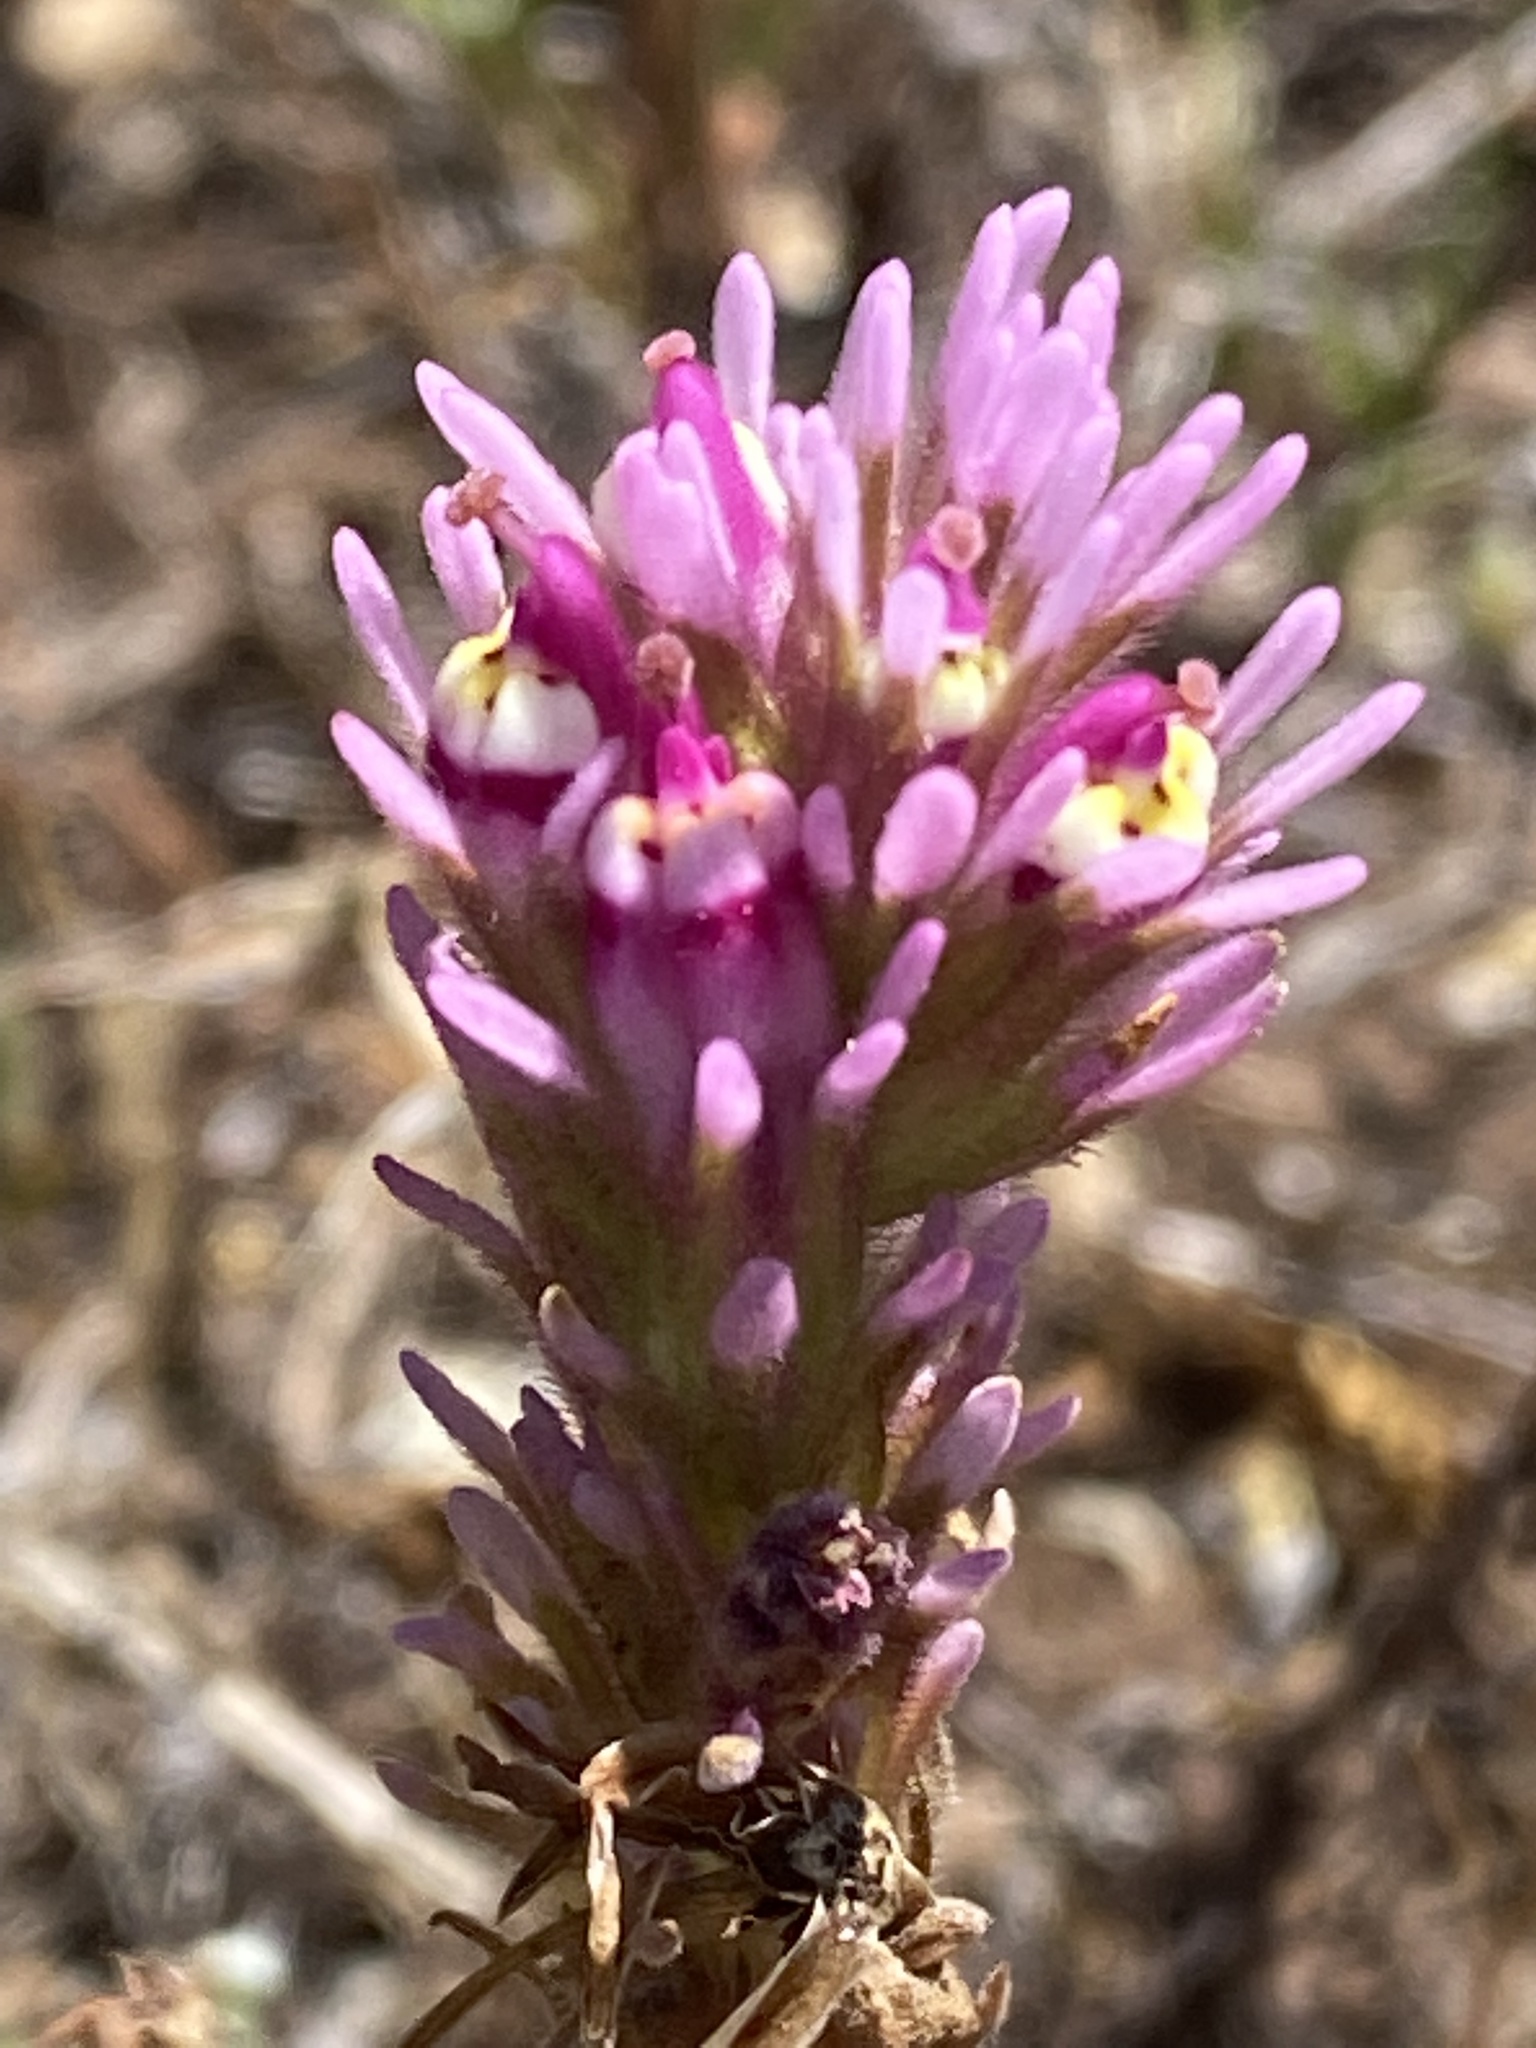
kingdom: Plantae
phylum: Tracheophyta
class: Magnoliopsida
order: Lamiales
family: Orobanchaceae
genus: Castilleja
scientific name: Castilleja densiflora
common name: Dense-flower indian paintbrush
